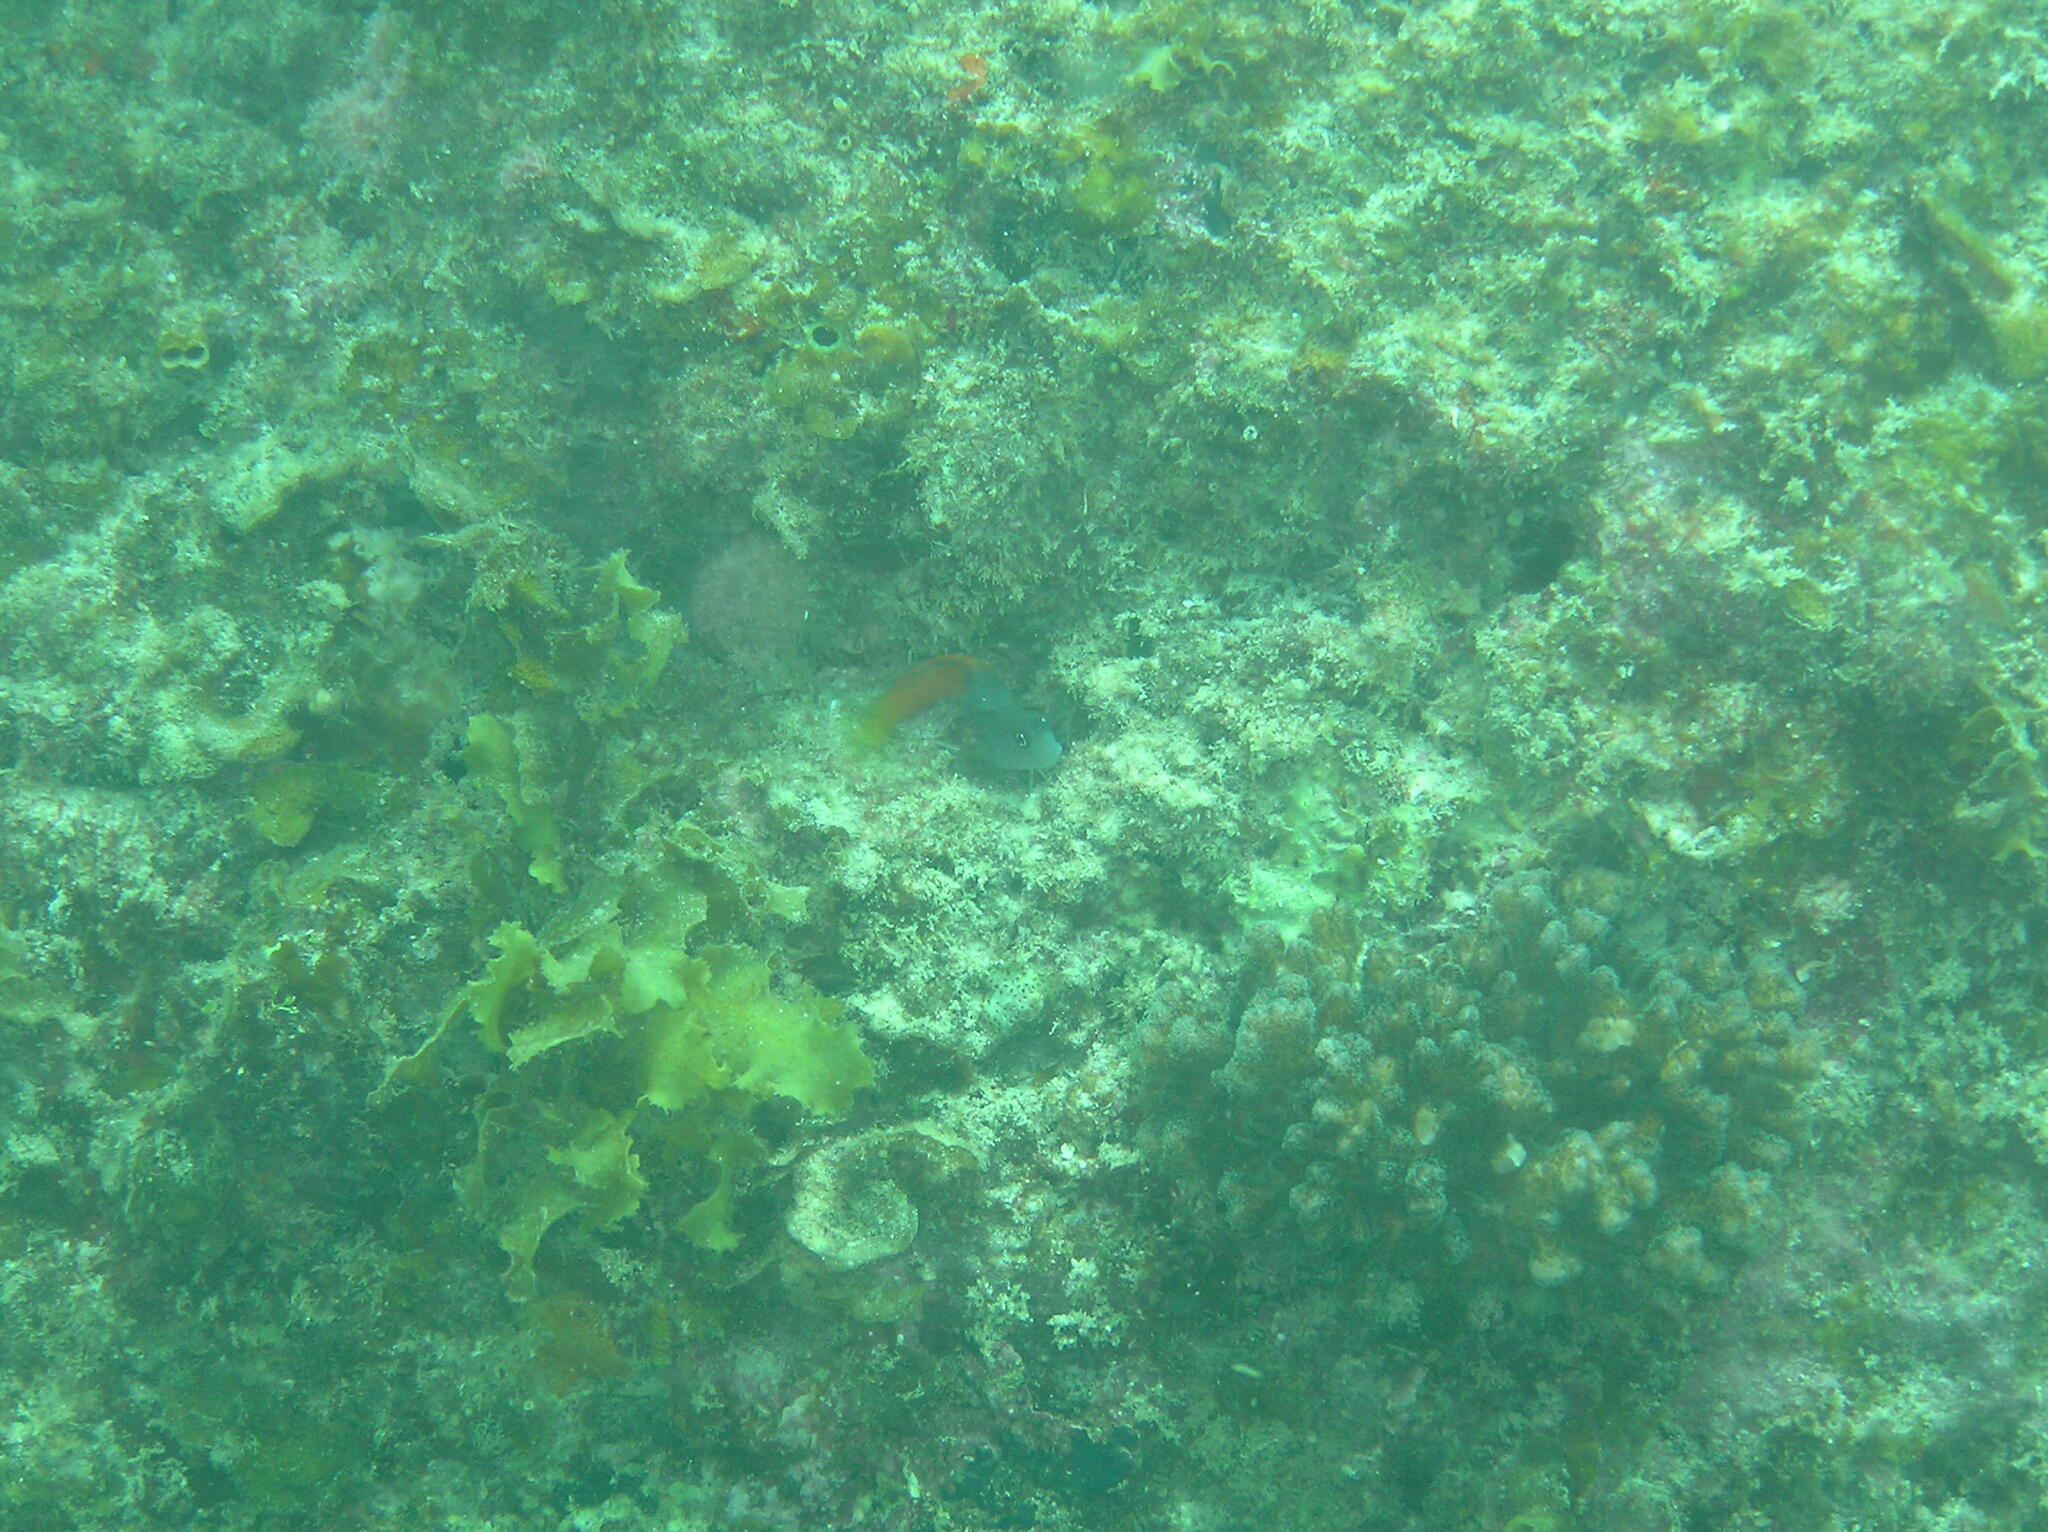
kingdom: Animalia
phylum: Chordata
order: Perciformes
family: Blenniidae
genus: Ecsenius
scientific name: Ecsenius bicolor
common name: Bicolor blenny
